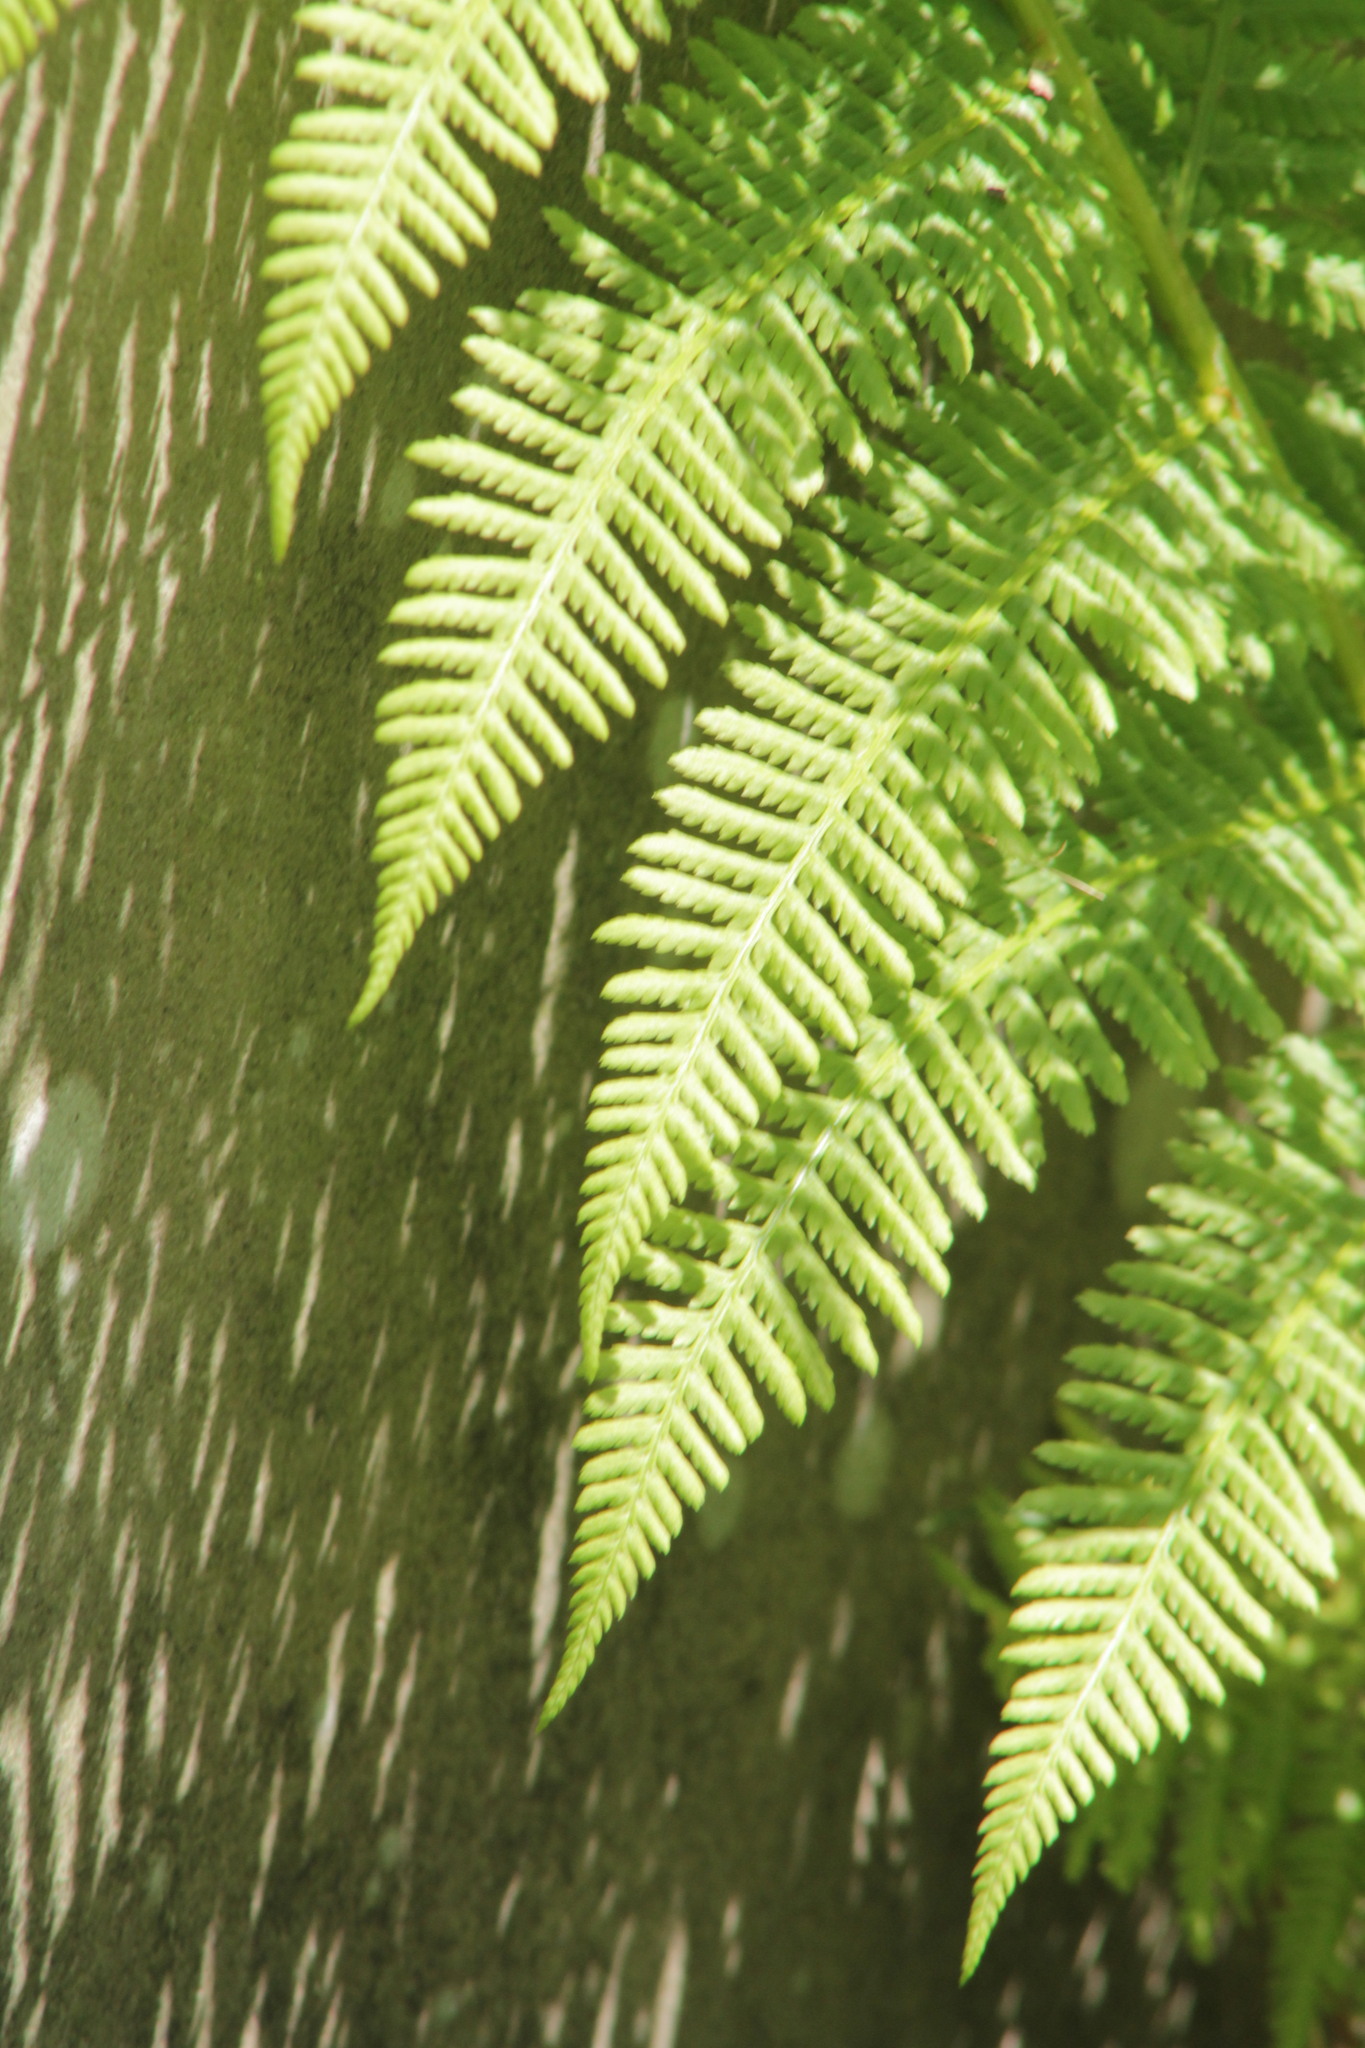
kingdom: Plantae
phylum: Tracheophyta
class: Polypodiopsida
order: Polypodiales
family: Athyriaceae
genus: Athyrium
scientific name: Athyrium filix-femina
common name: Lady fern
